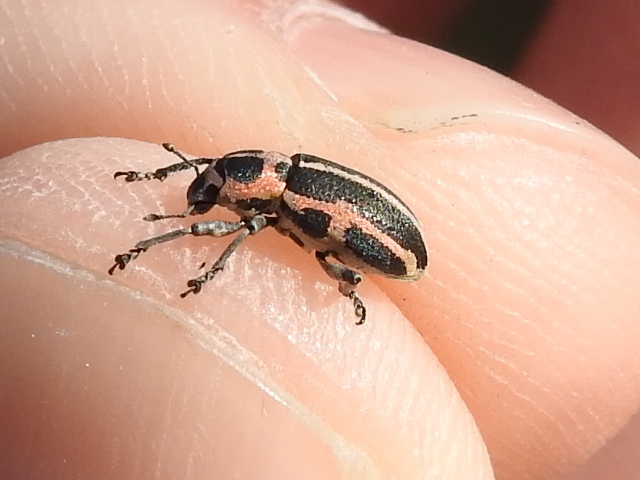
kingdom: Animalia
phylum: Arthropoda
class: Insecta
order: Coleoptera
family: Curculionidae
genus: Eudiagogus
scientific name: Eudiagogus pulcher
